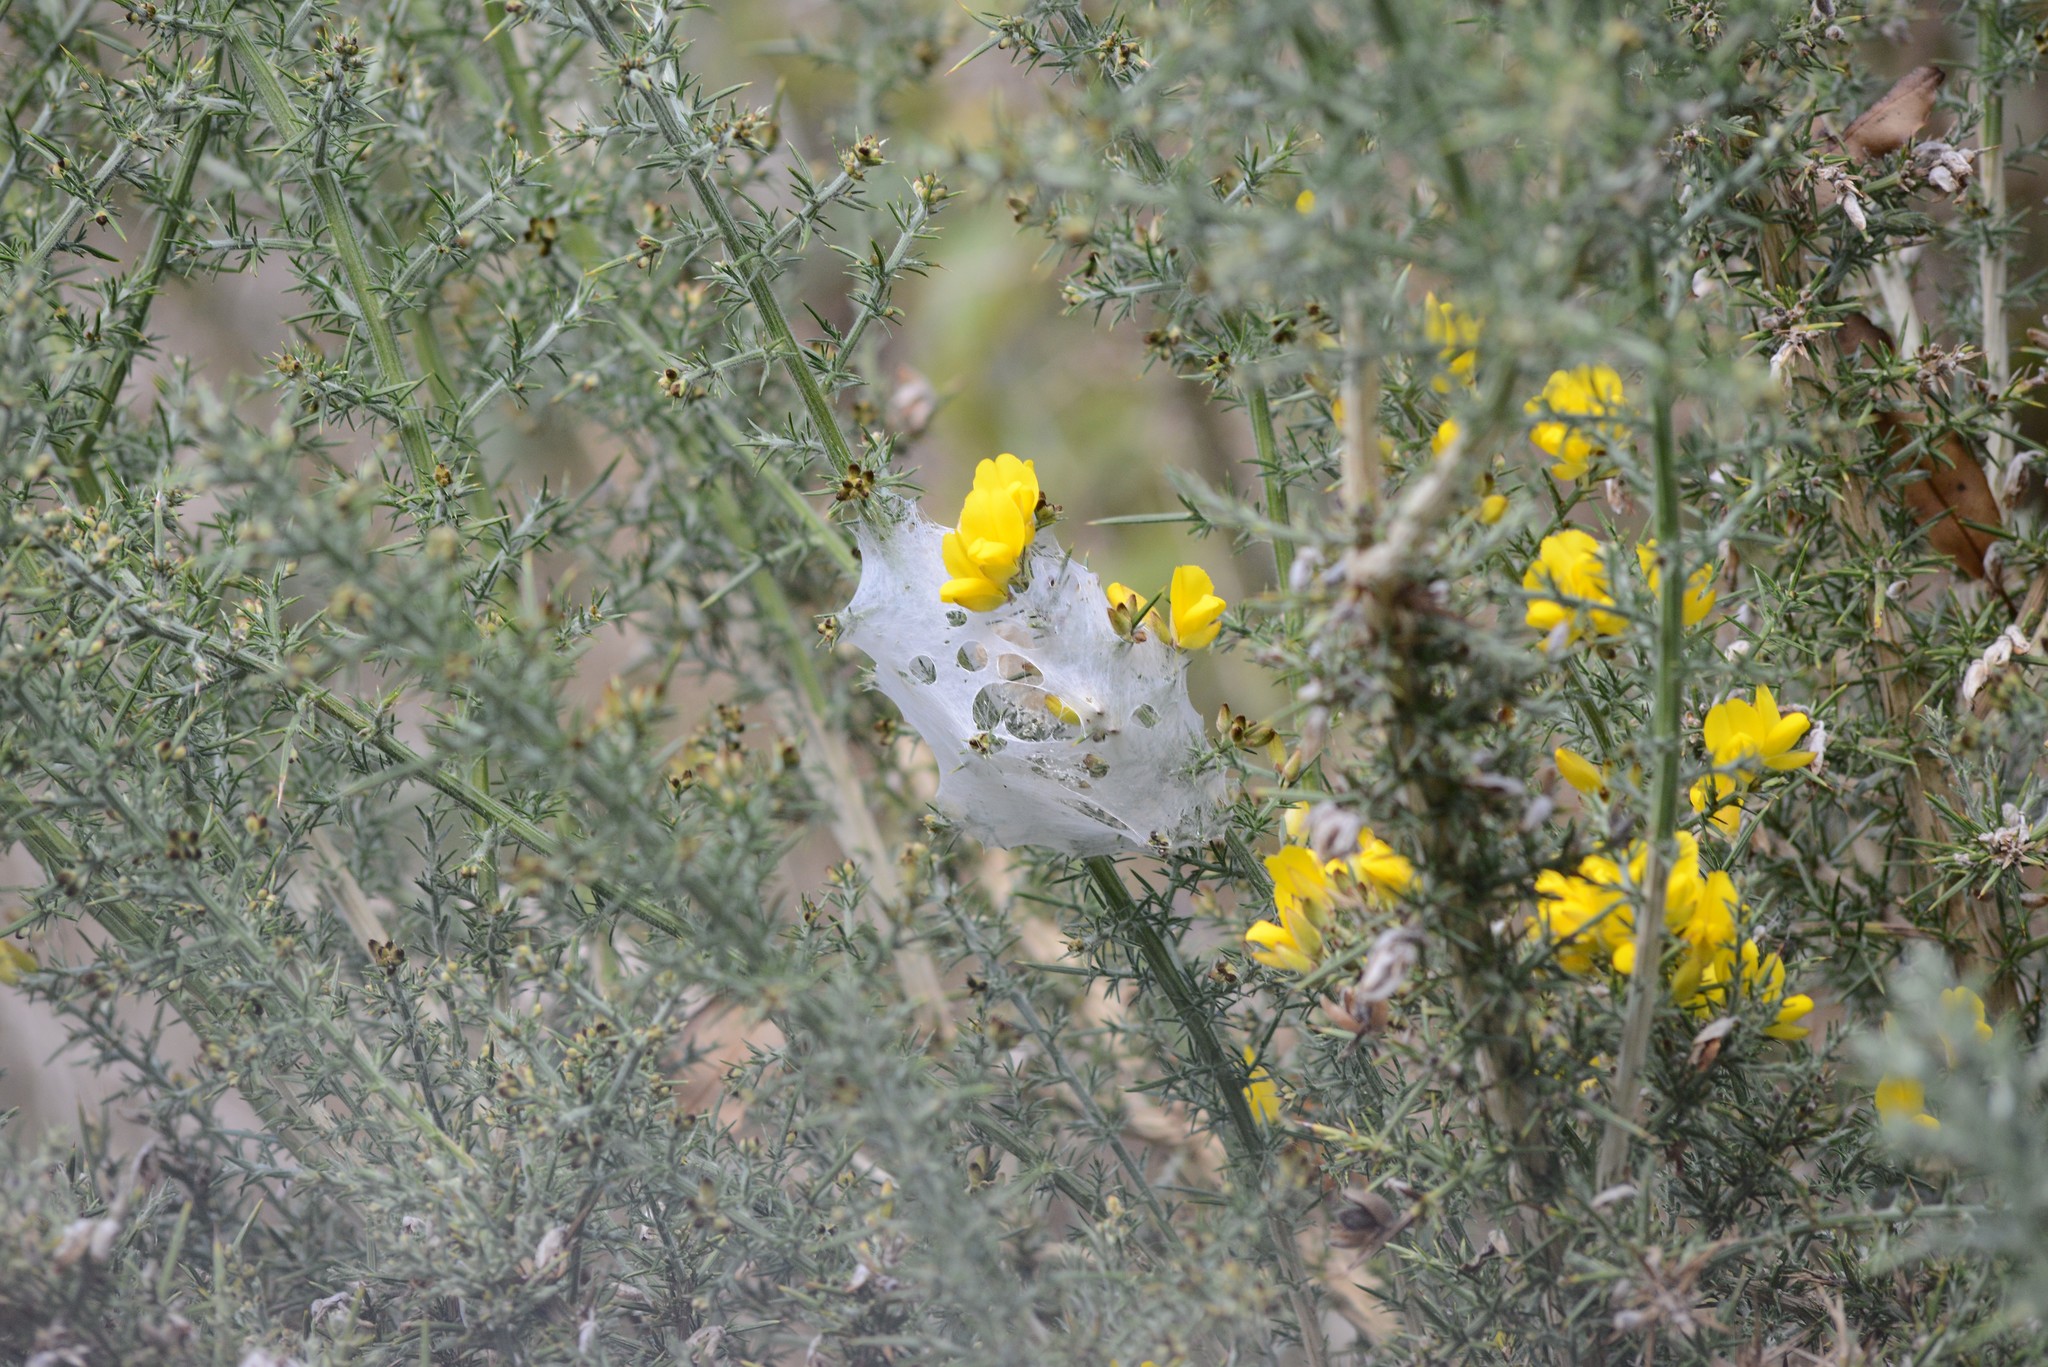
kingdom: Animalia
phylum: Arthropoda
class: Arachnida
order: Araneae
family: Pisauridae
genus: Dolomedes
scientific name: Dolomedes minor
